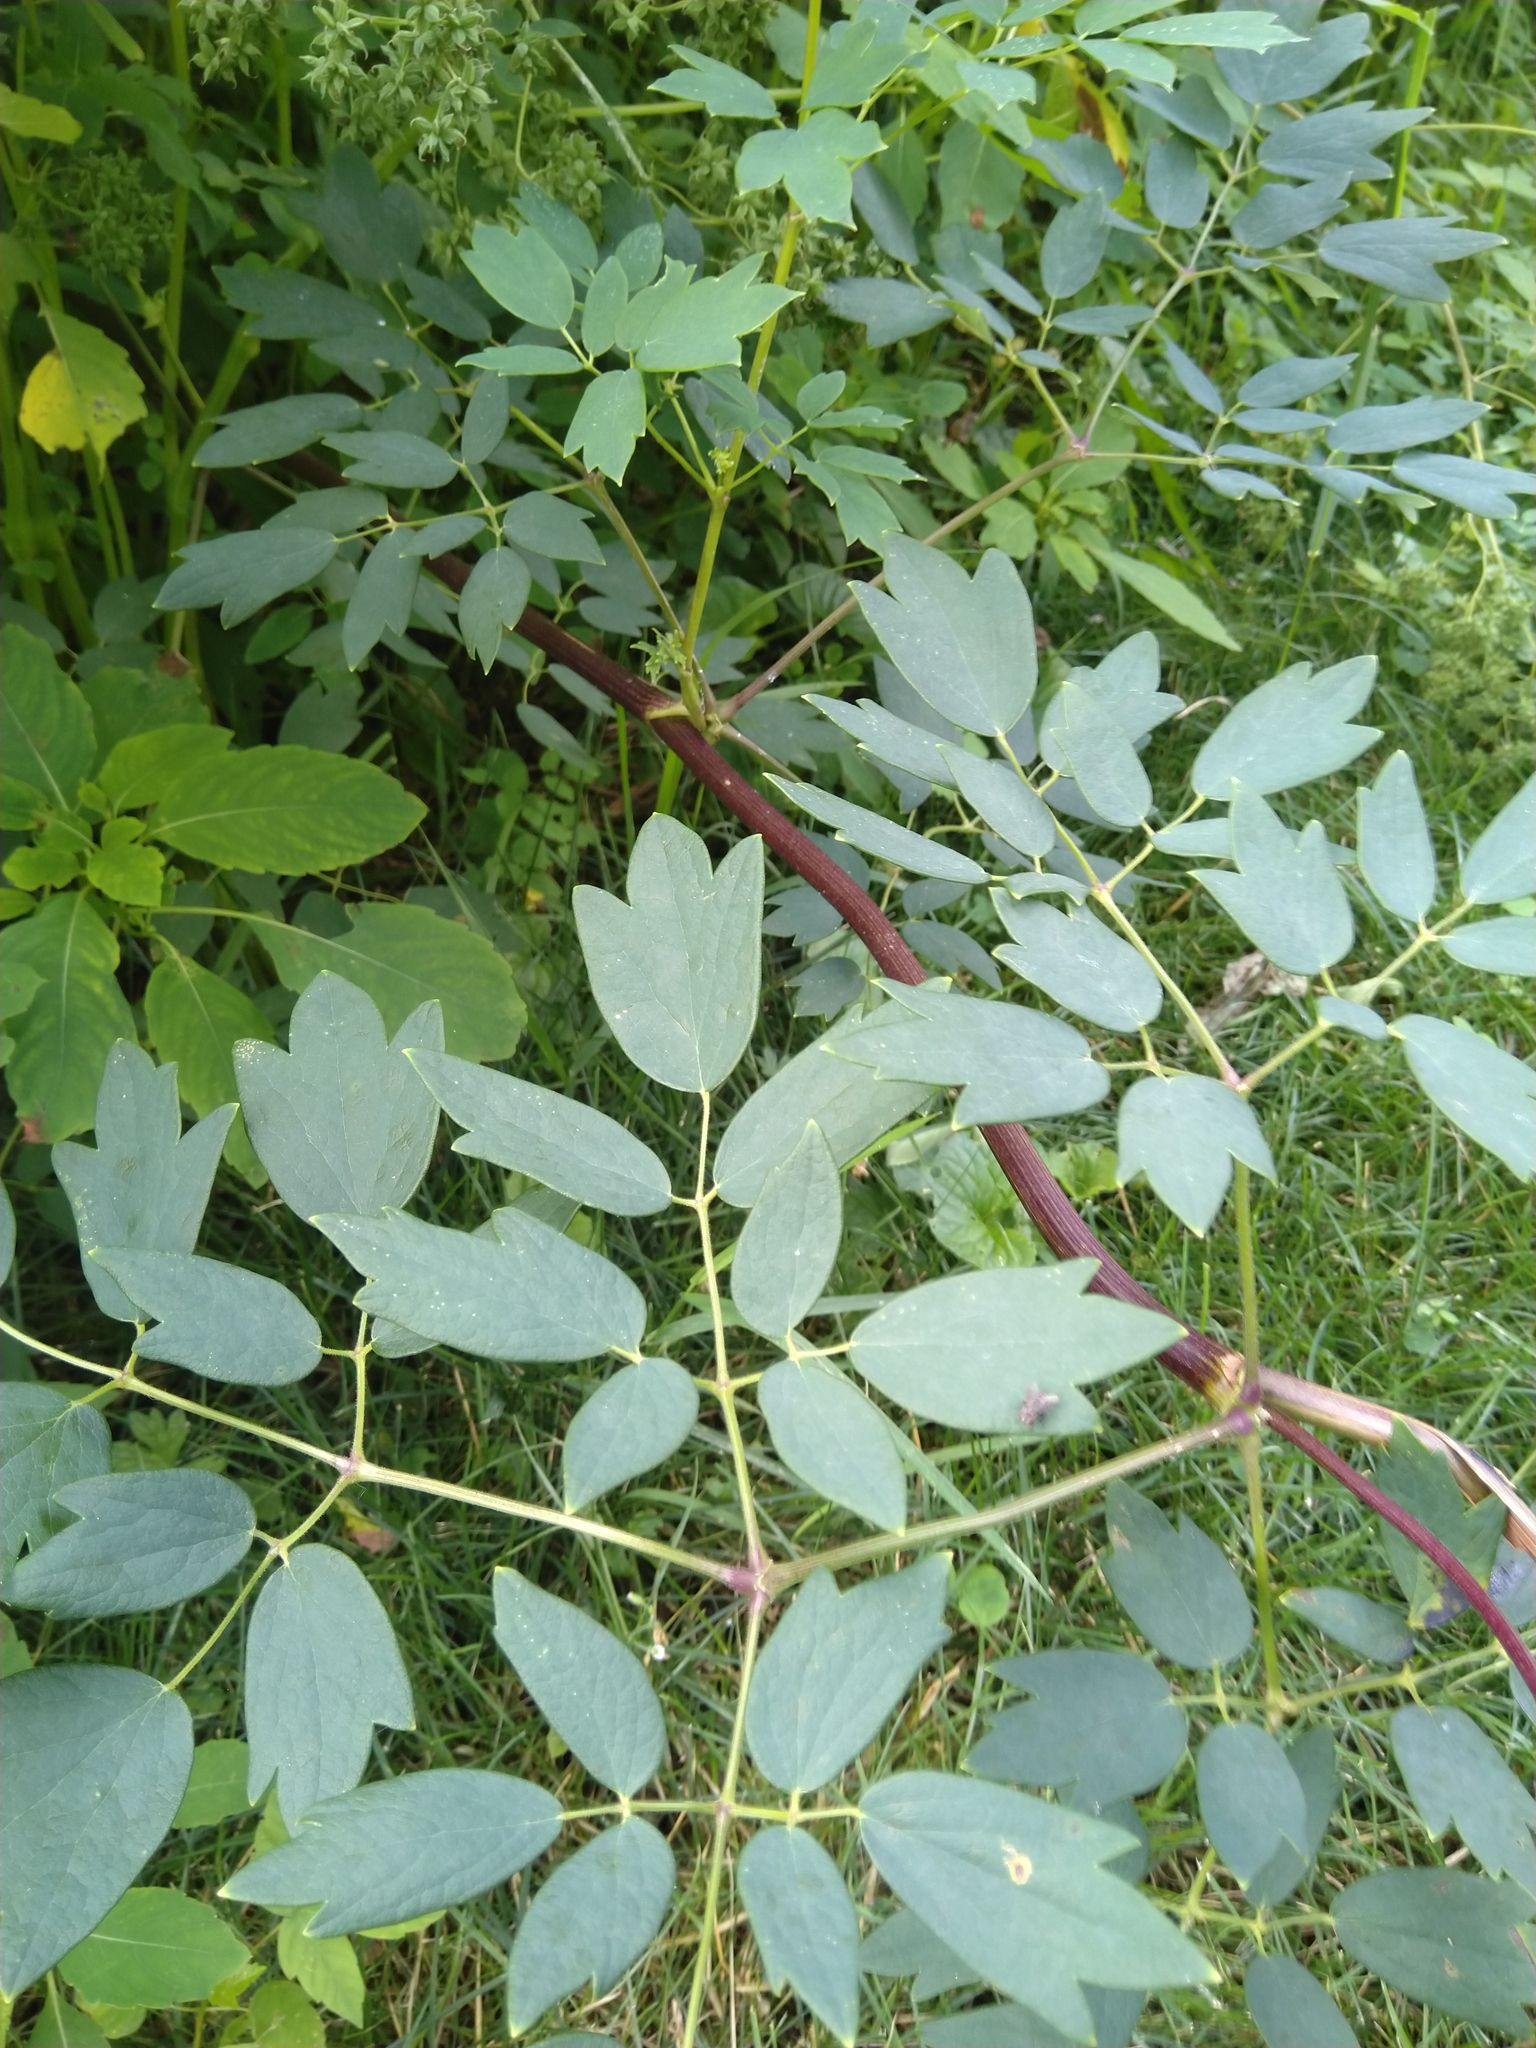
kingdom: Plantae
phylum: Tracheophyta
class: Magnoliopsida
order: Ranunculales
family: Ranunculaceae
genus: Thalictrum
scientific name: Thalictrum dasycarpum
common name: Purple meadow-rue
